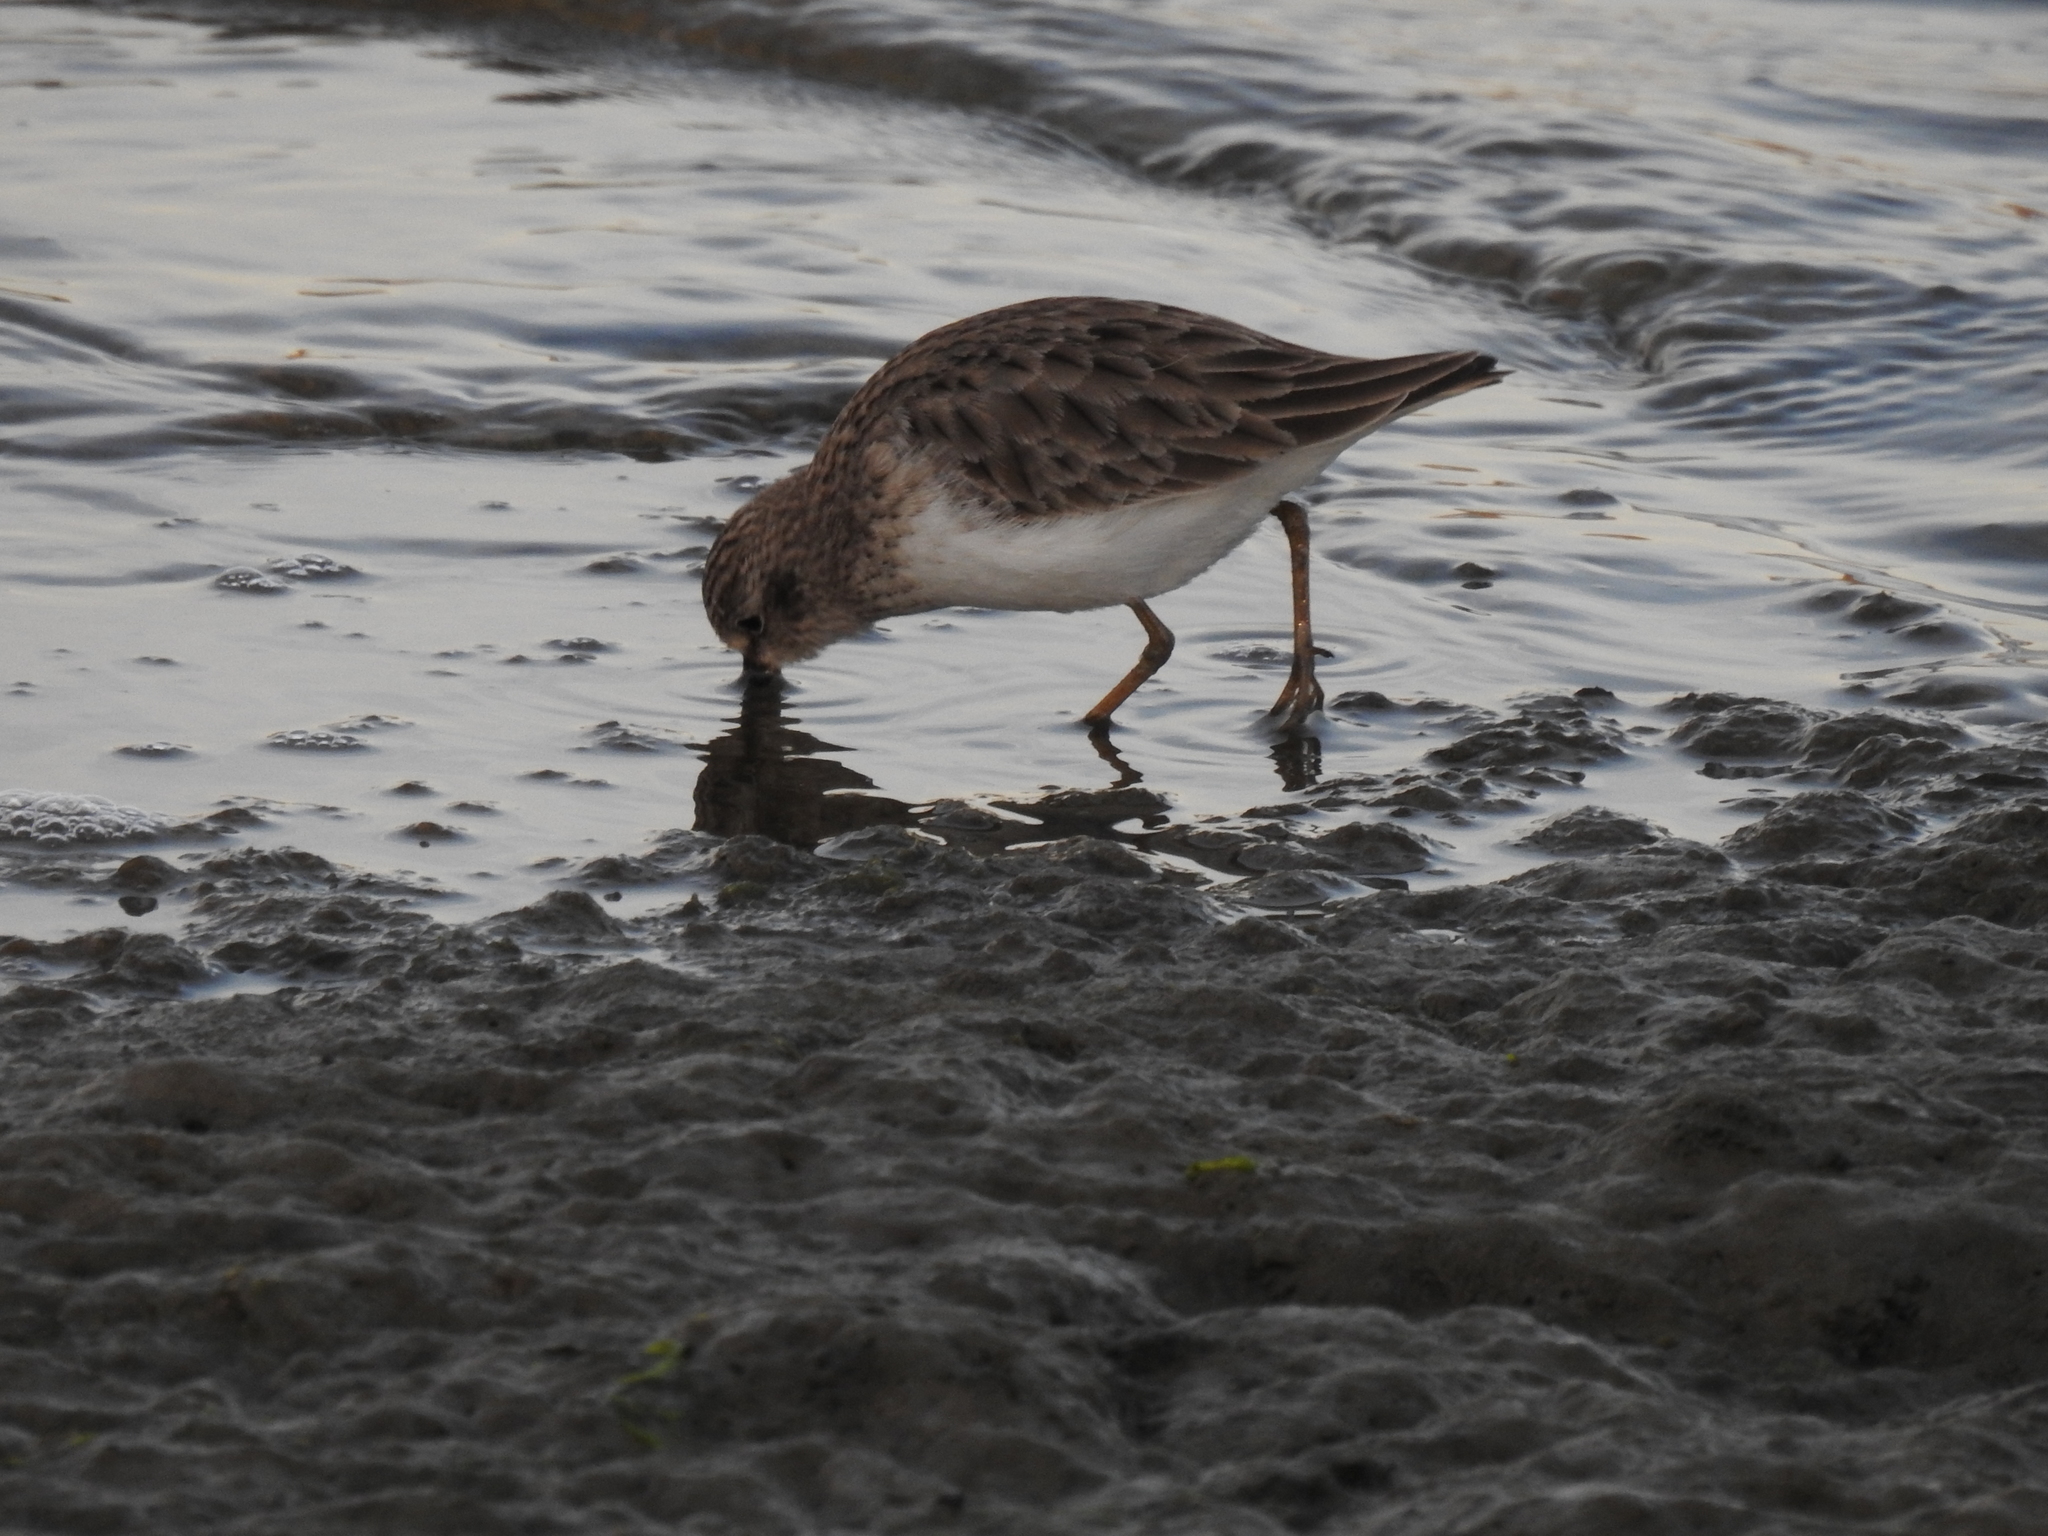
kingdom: Animalia
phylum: Chordata
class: Aves
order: Charadriiformes
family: Scolopacidae
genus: Calidris
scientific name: Calidris minutilla
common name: Least sandpiper
